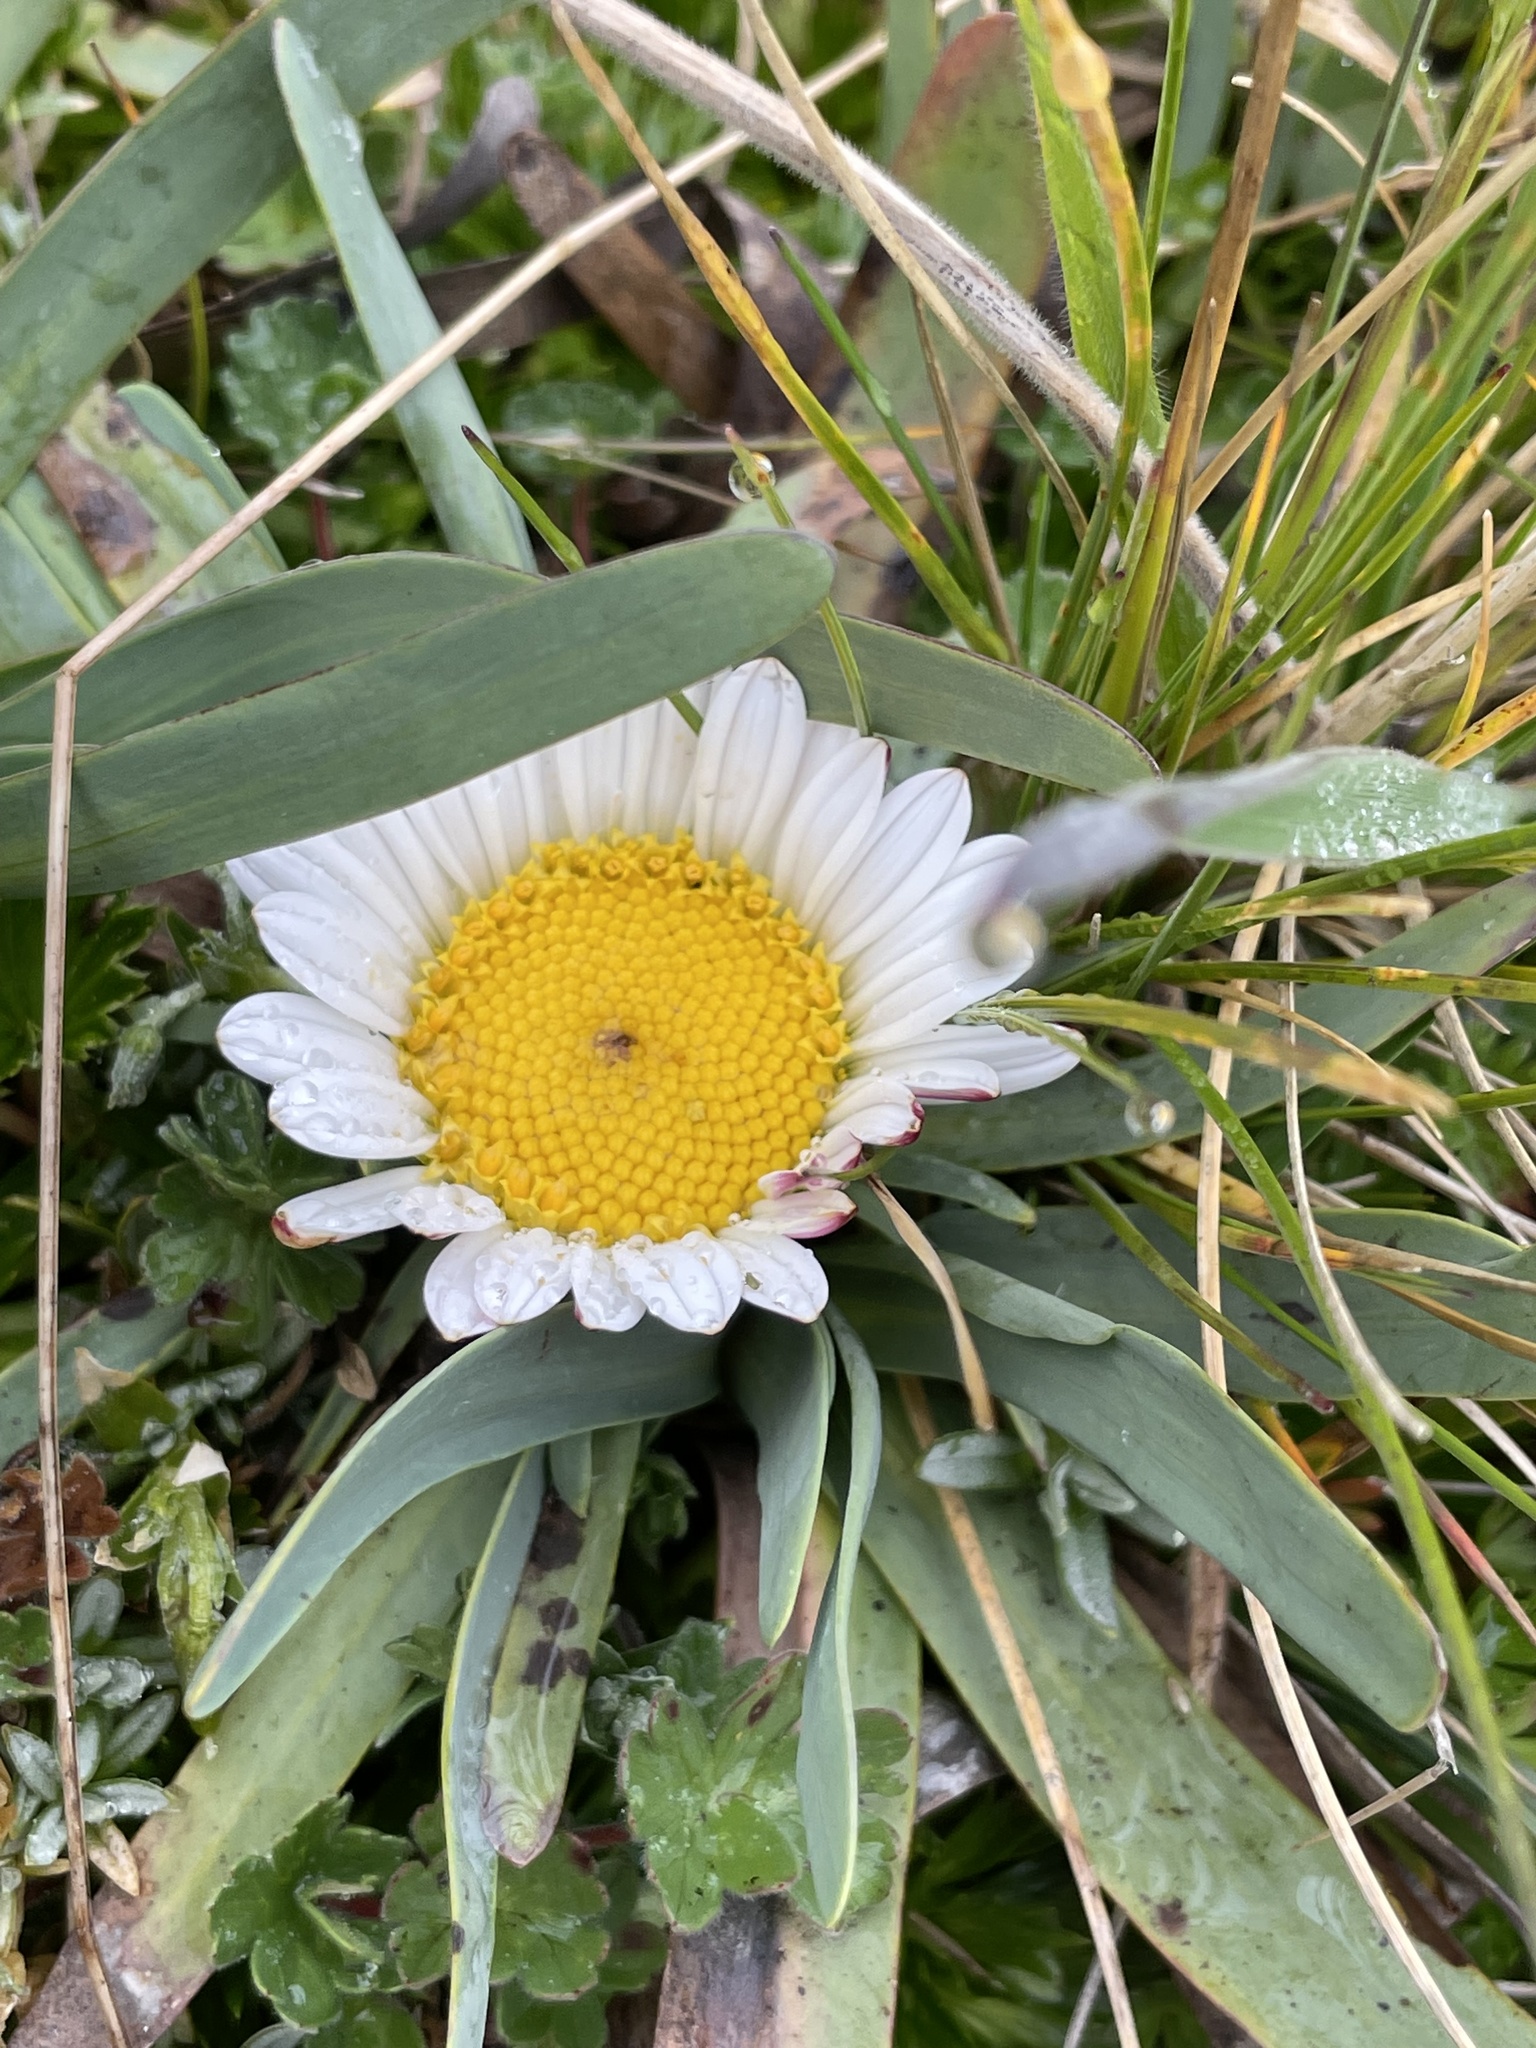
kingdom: Plantae
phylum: Tracheophyta
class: Magnoliopsida
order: Asterales
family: Asteraceae
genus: Rockhausenia
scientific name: Rockhausenia nubigena
